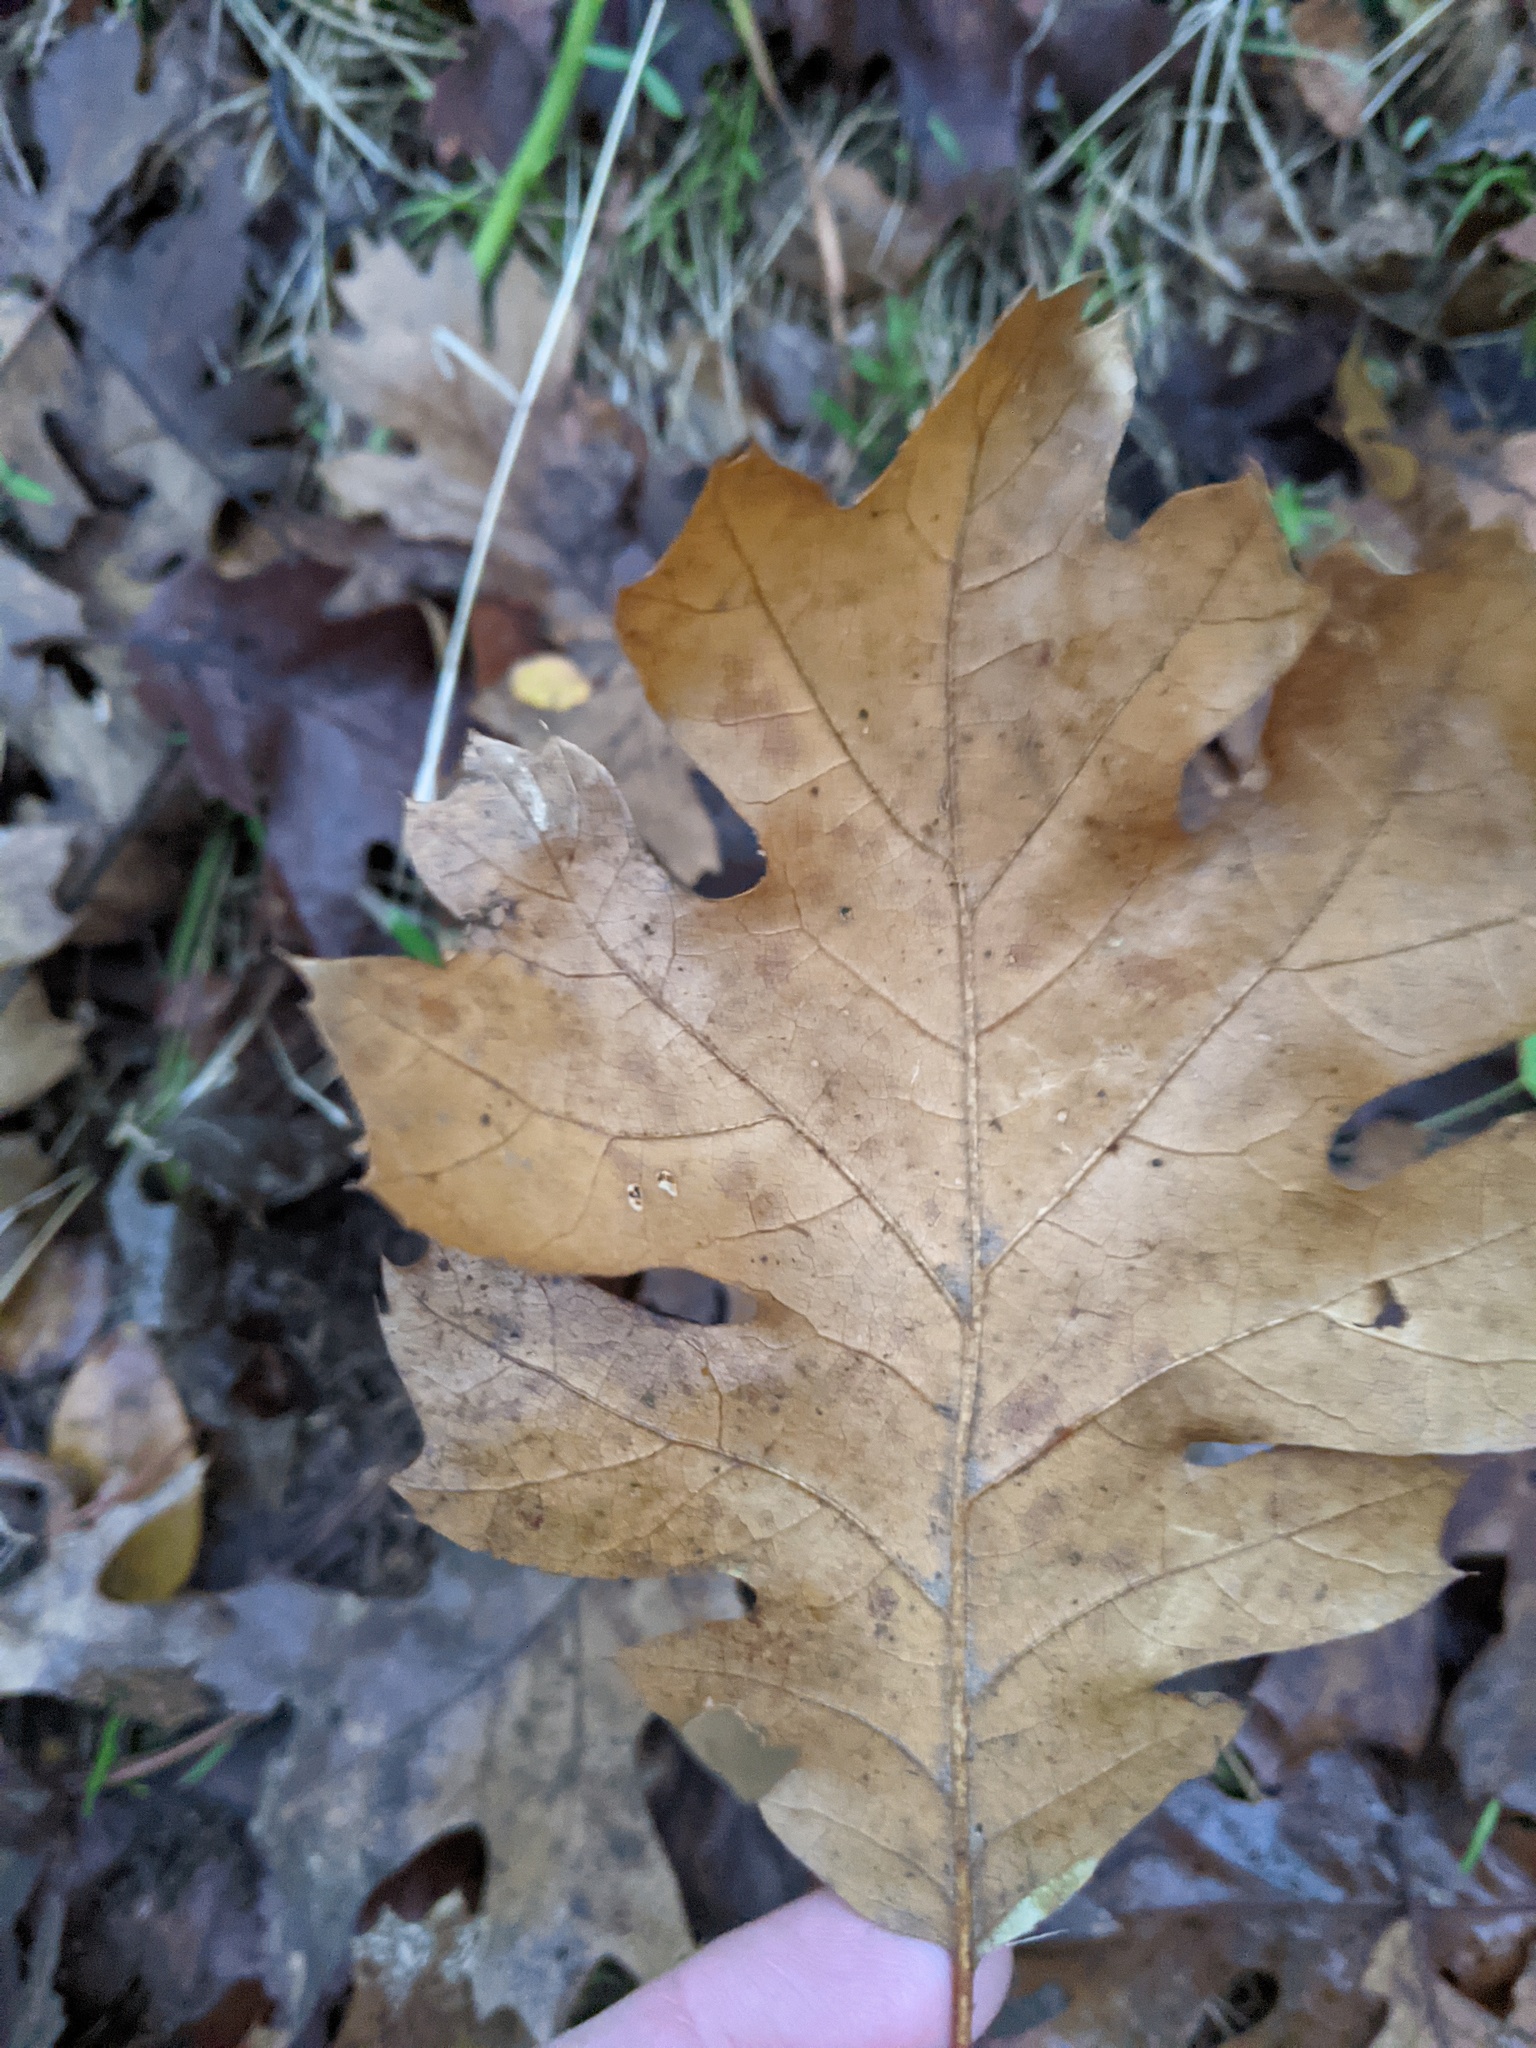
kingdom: Plantae
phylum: Tracheophyta
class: Magnoliopsida
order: Fagales
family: Fagaceae
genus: Quercus
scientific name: Quercus kelloggii
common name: California black oak
